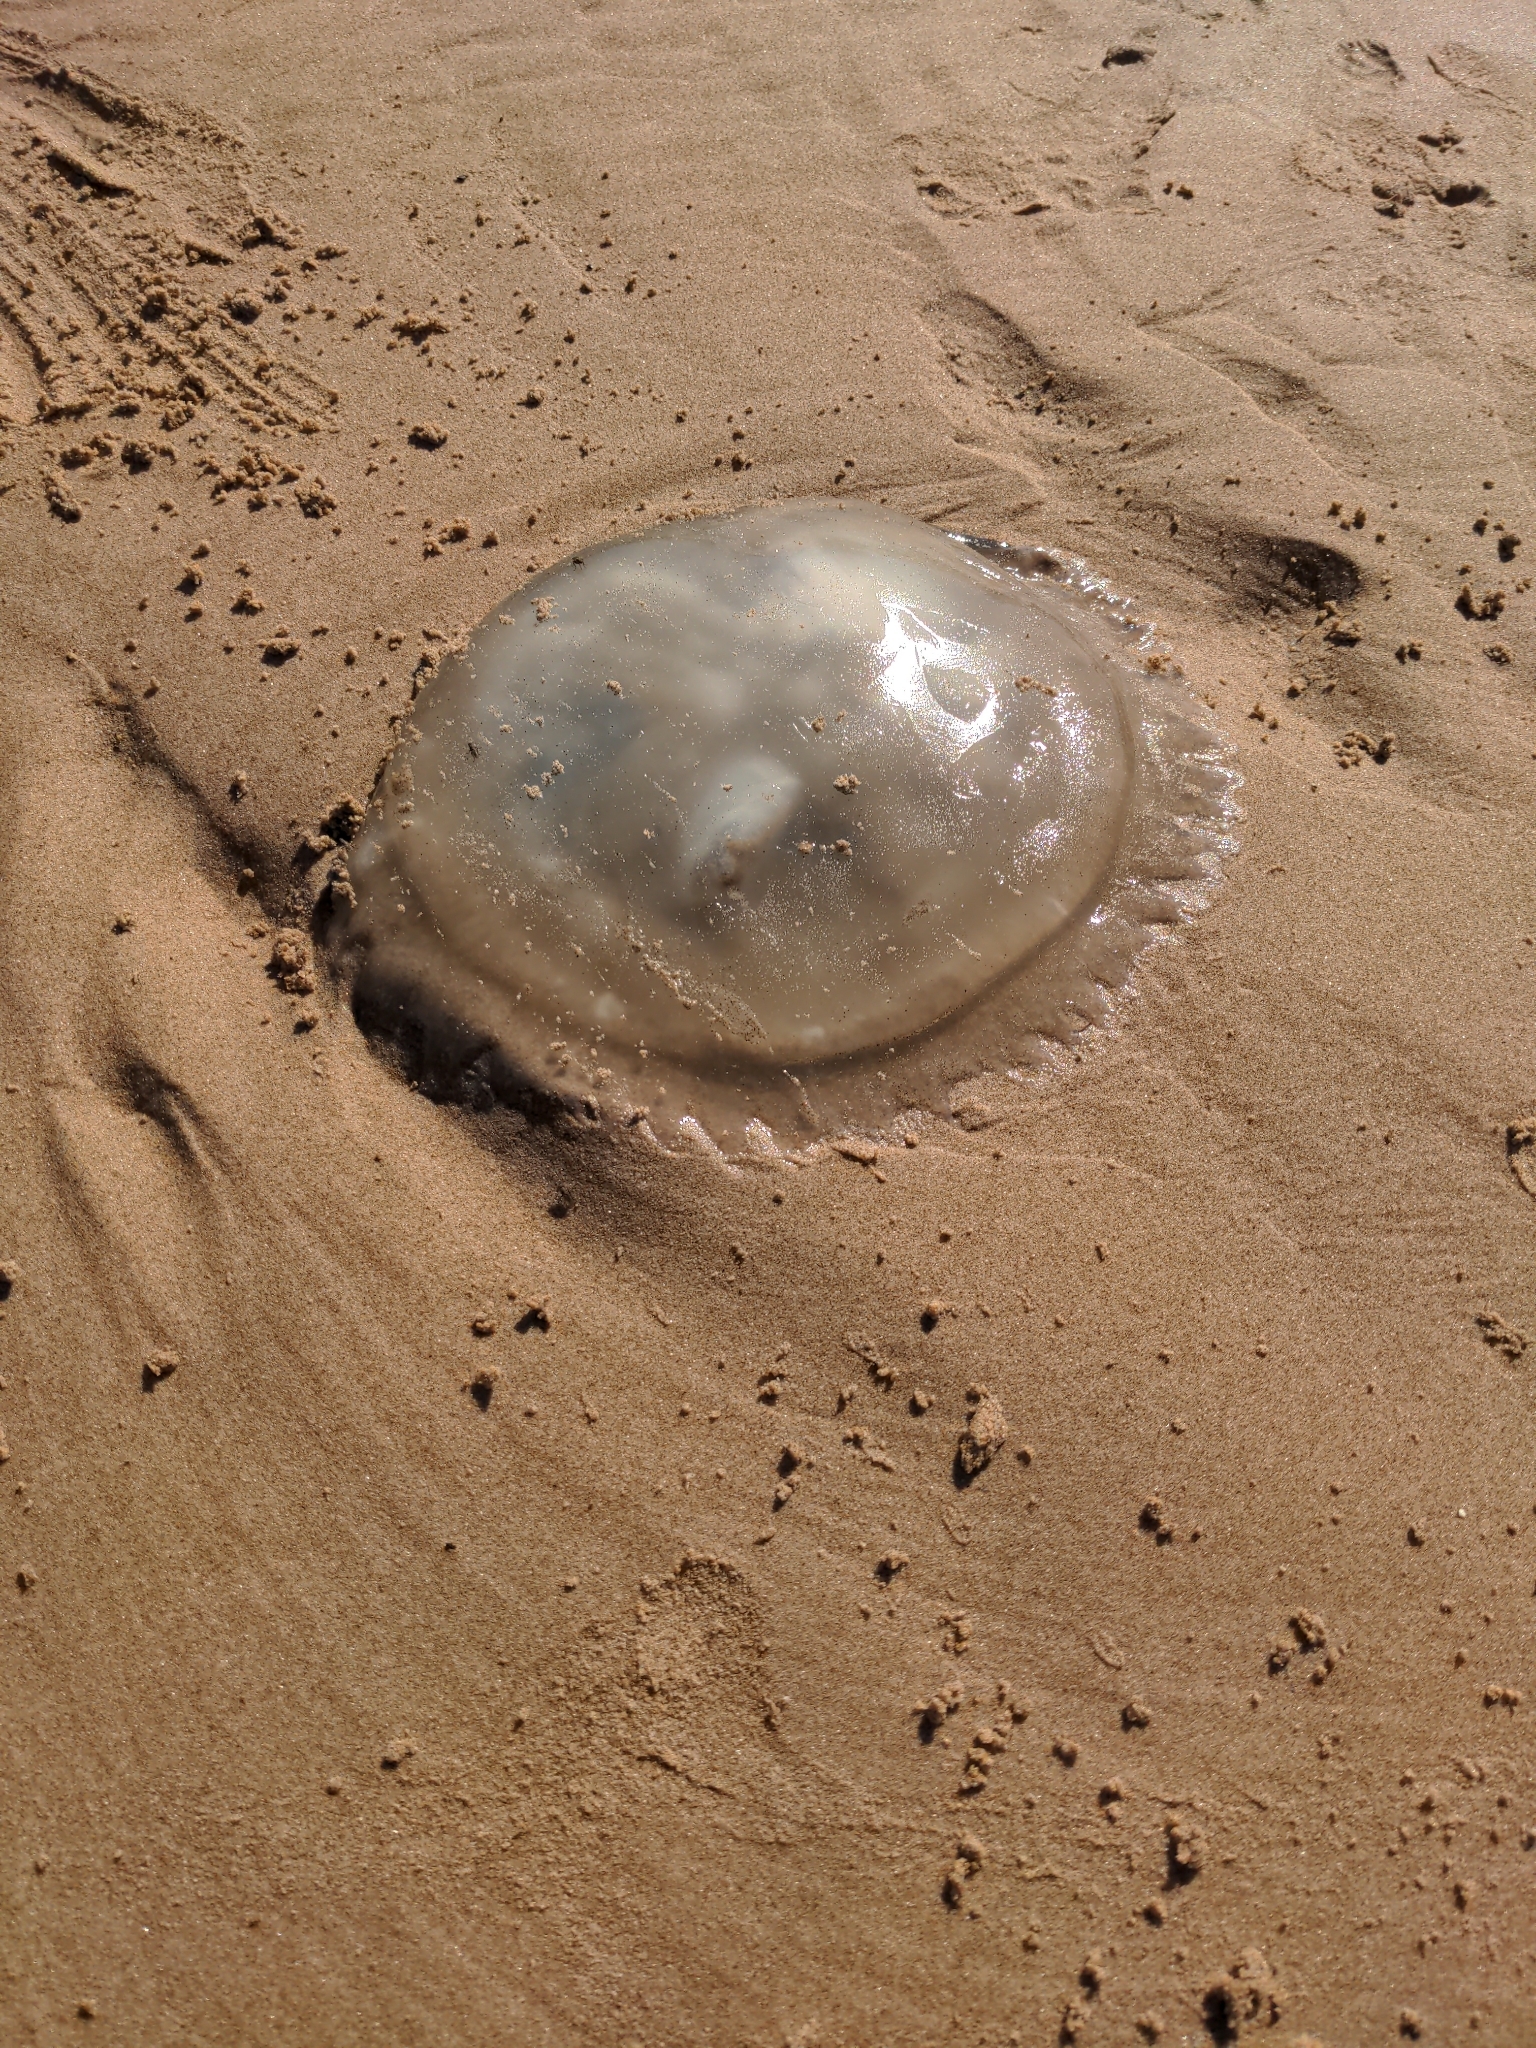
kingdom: Animalia
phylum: Cnidaria
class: Scyphozoa
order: Rhizostomeae
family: Catostylidae
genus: Catostylus
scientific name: Catostylus tagi
